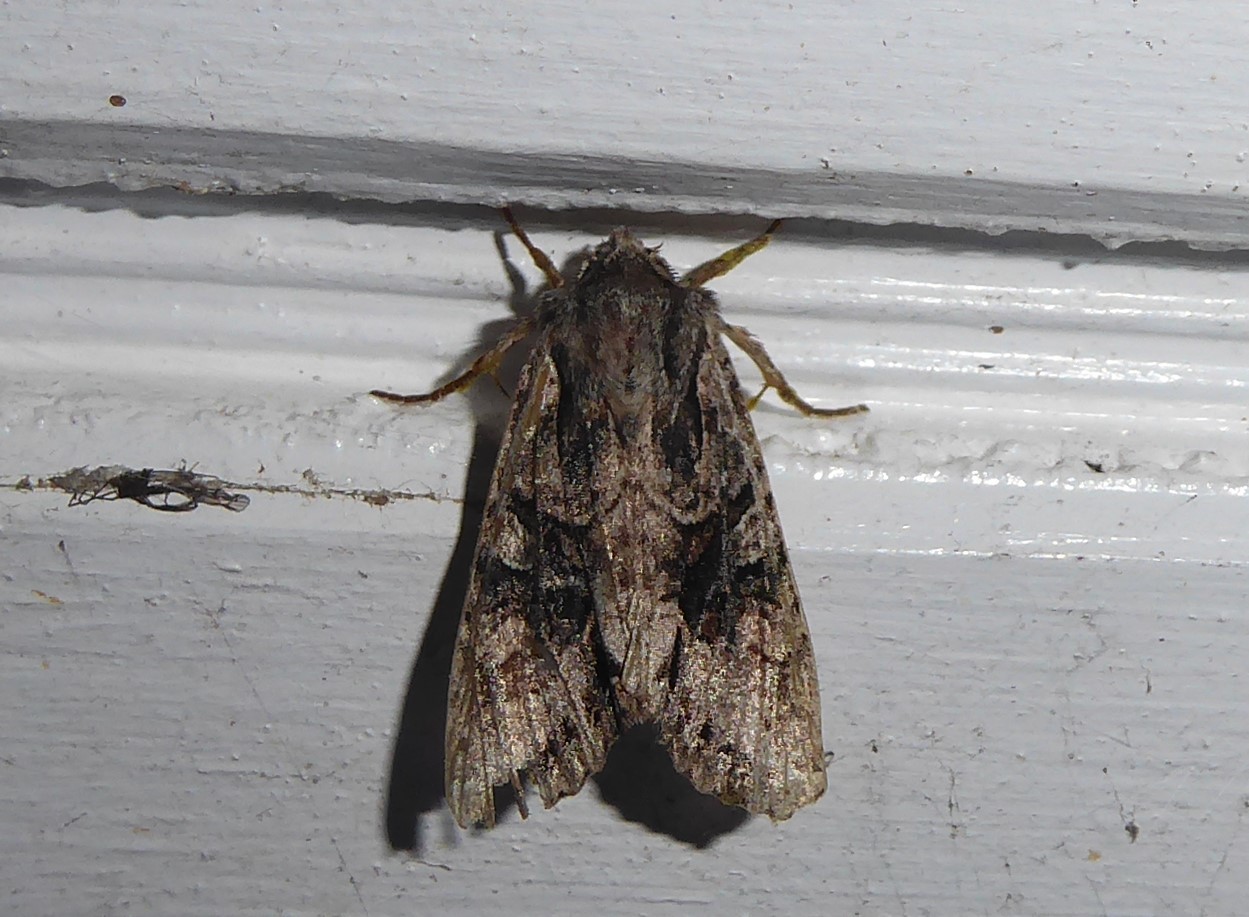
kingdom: Animalia
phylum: Arthropoda
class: Insecta
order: Lepidoptera
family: Noctuidae
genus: Ichneutica
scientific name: Ichneutica mutans
